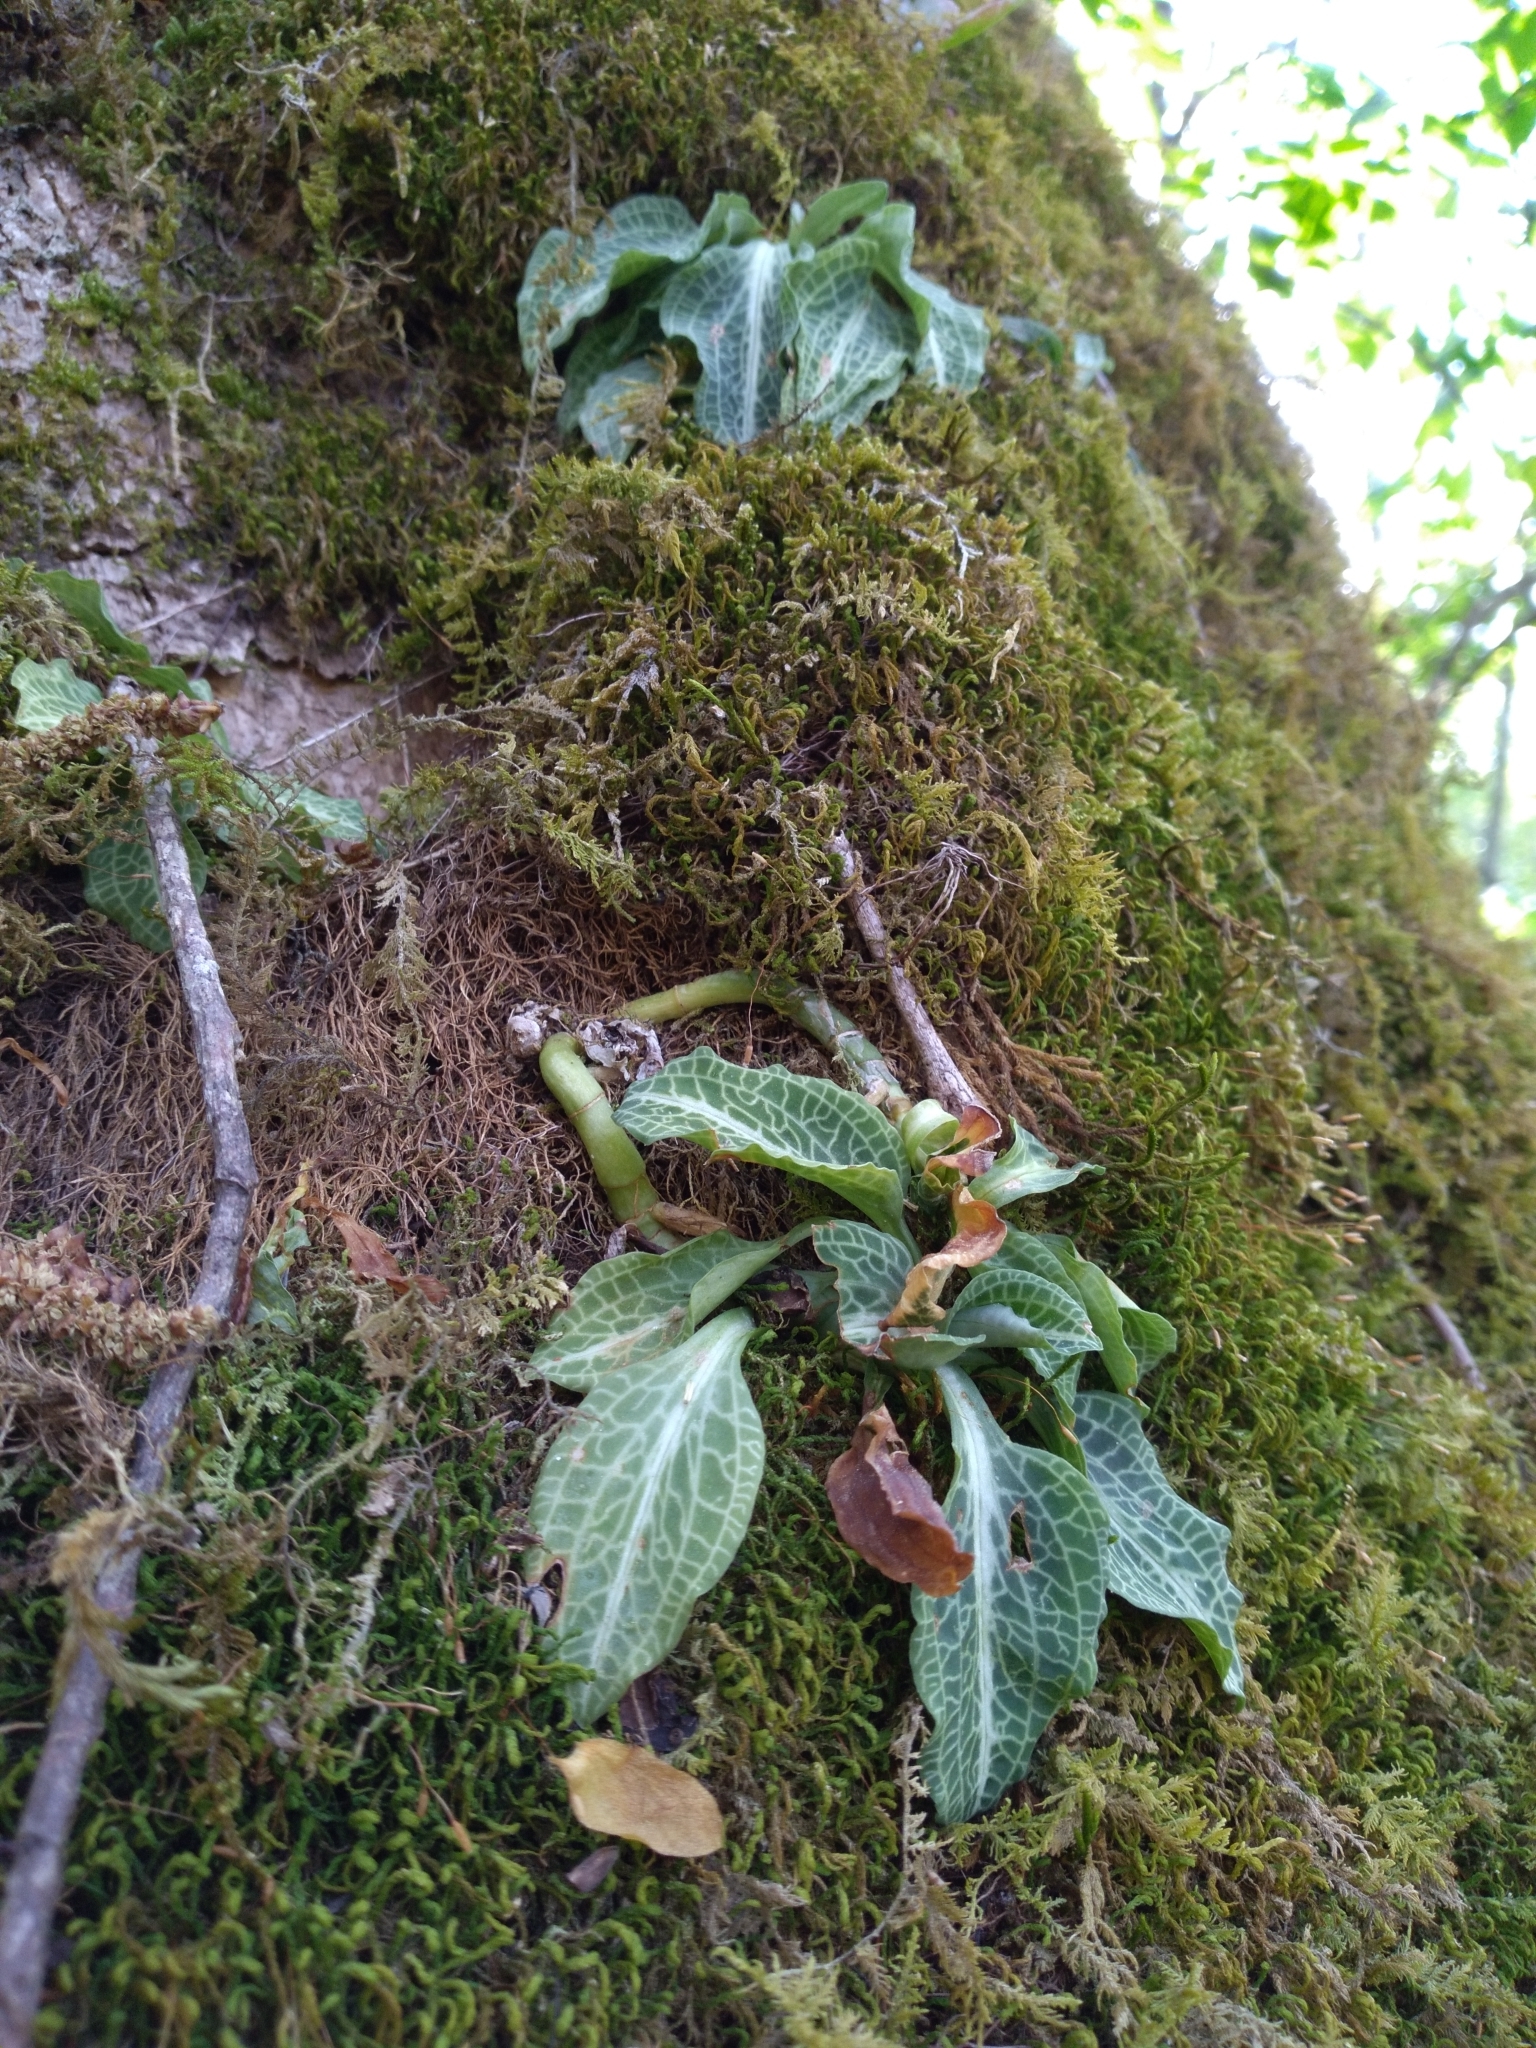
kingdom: Plantae
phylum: Tracheophyta
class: Liliopsida
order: Asparagales
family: Orchidaceae
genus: Goodyera
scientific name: Goodyera pubescens
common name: Downy rattlesnake-plantain
